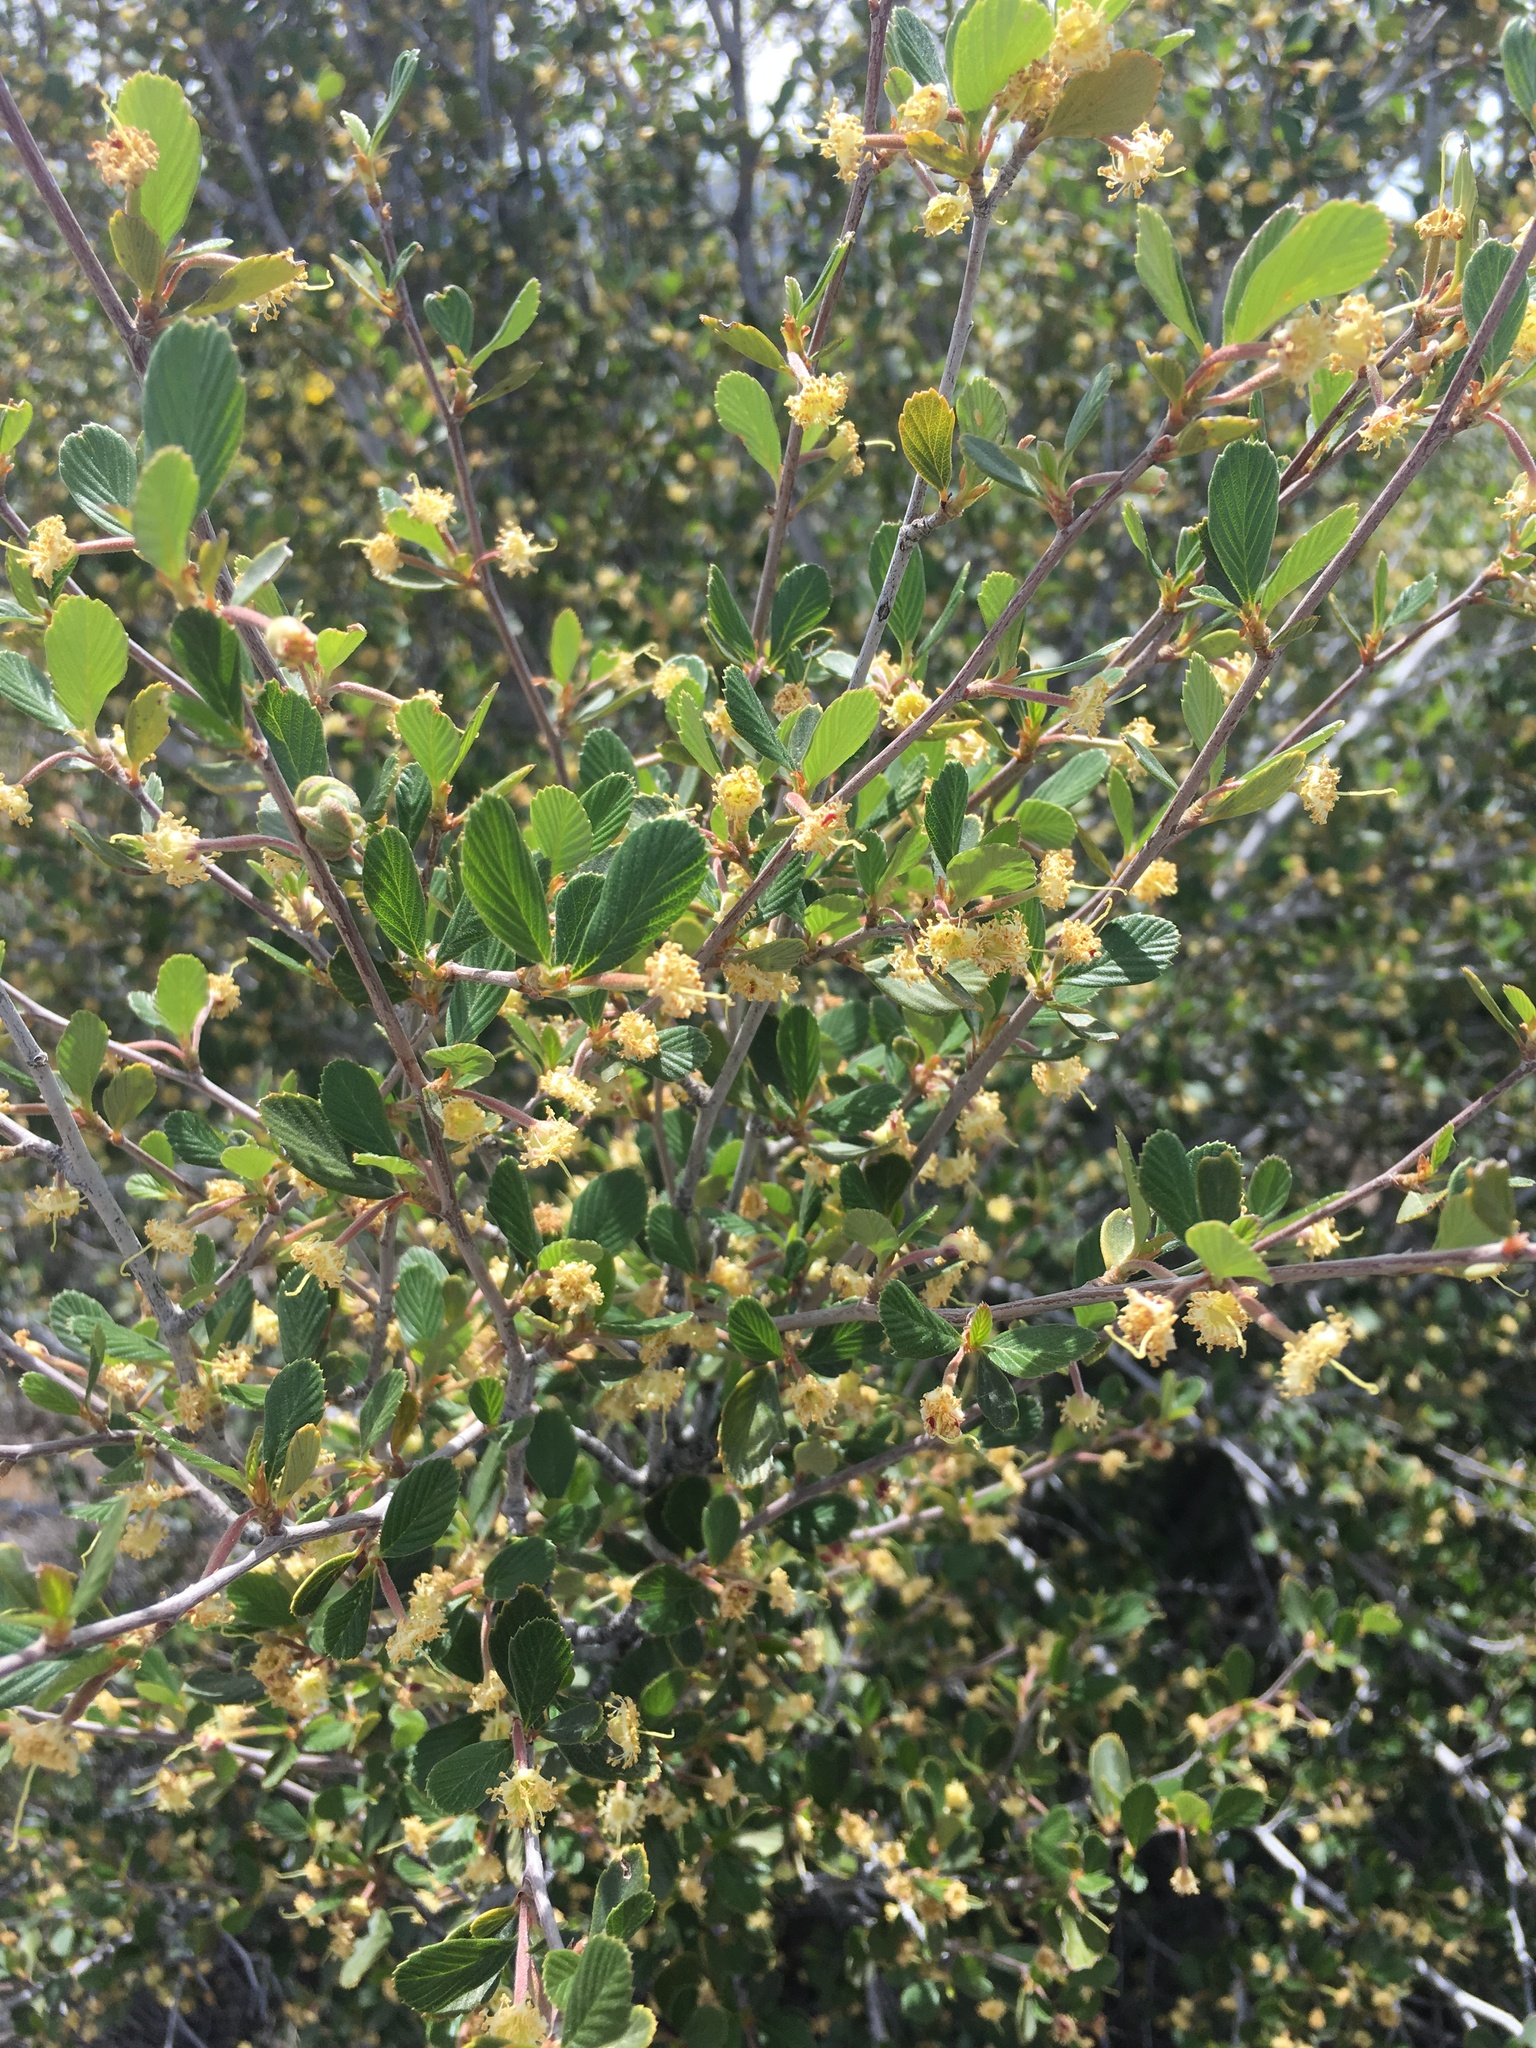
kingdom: Plantae
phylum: Tracheophyta
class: Magnoliopsida
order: Rosales
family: Rosaceae
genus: Cercocarpus
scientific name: Cercocarpus betuloides
